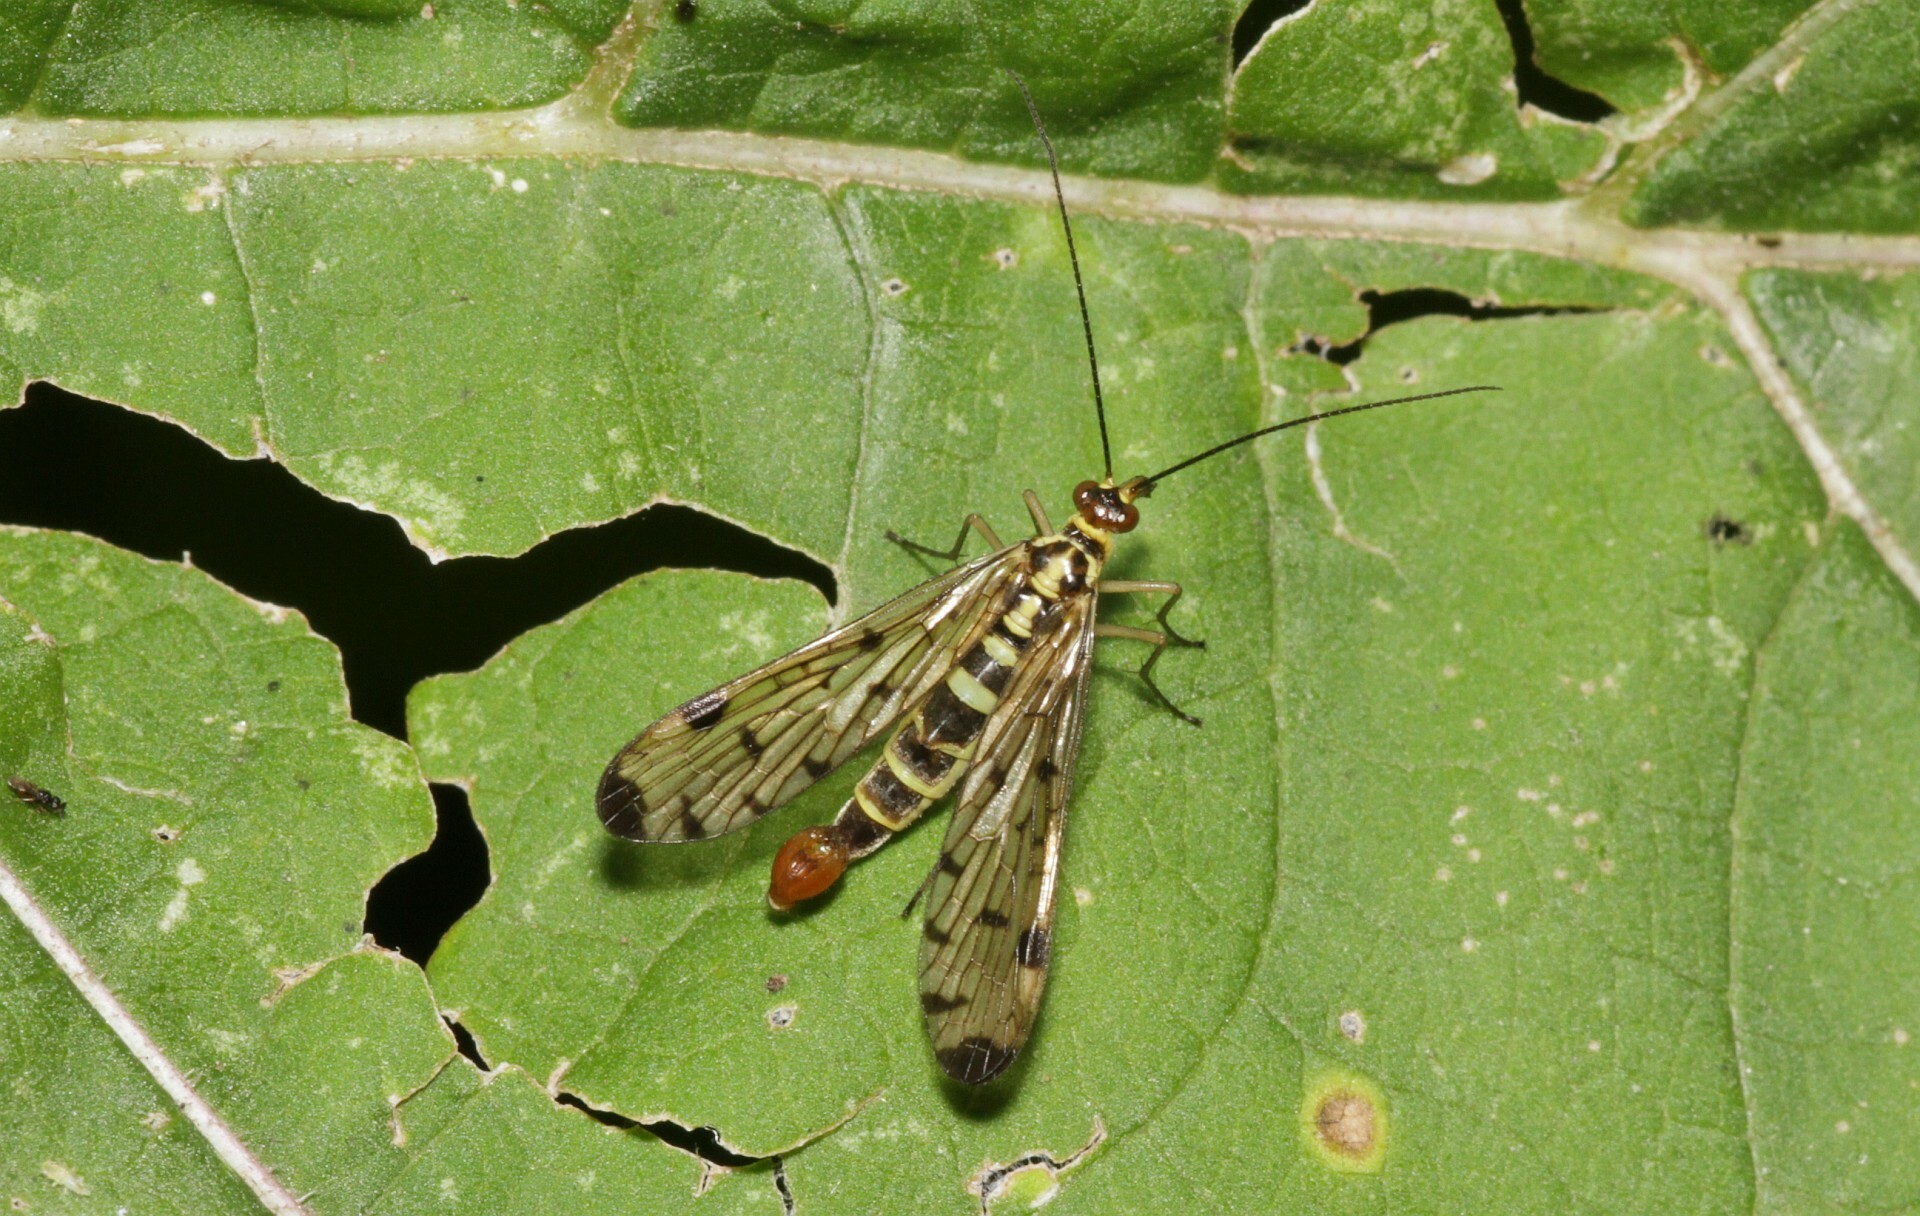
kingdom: Animalia
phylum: Arthropoda
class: Insecta
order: Mecoptera
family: Panorpidae
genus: Panorpa
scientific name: Panorpa germanica
